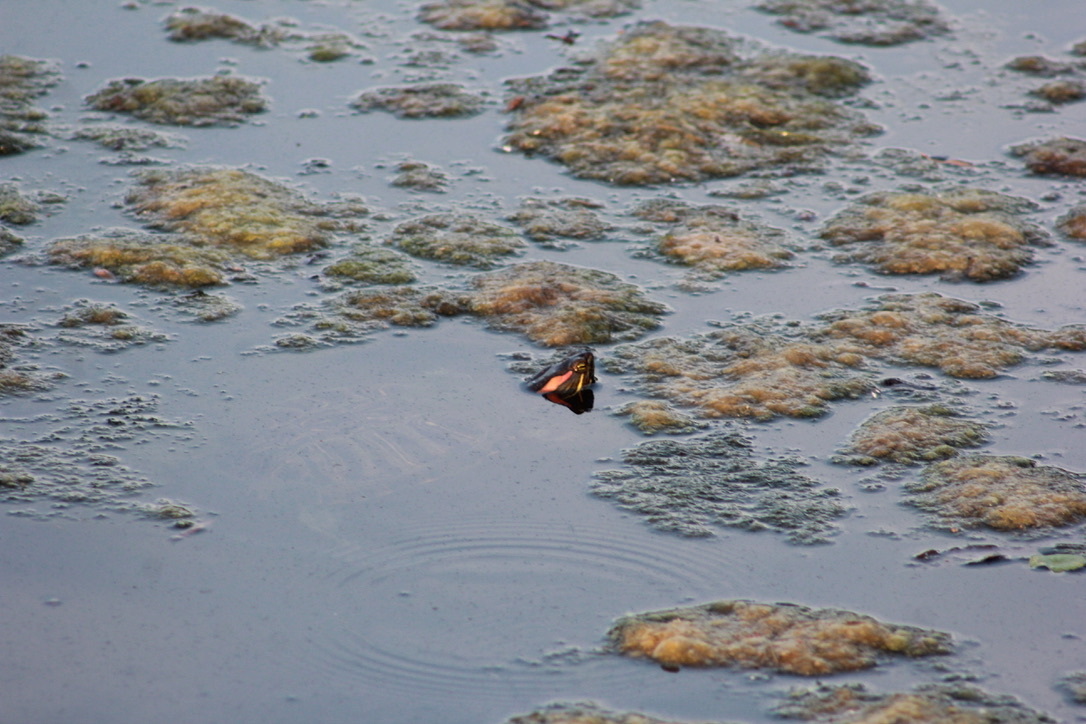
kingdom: Animalia
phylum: Chordata
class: Testudines
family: Emydidae
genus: Trachemys
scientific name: Trachemys scripta
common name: Slider
